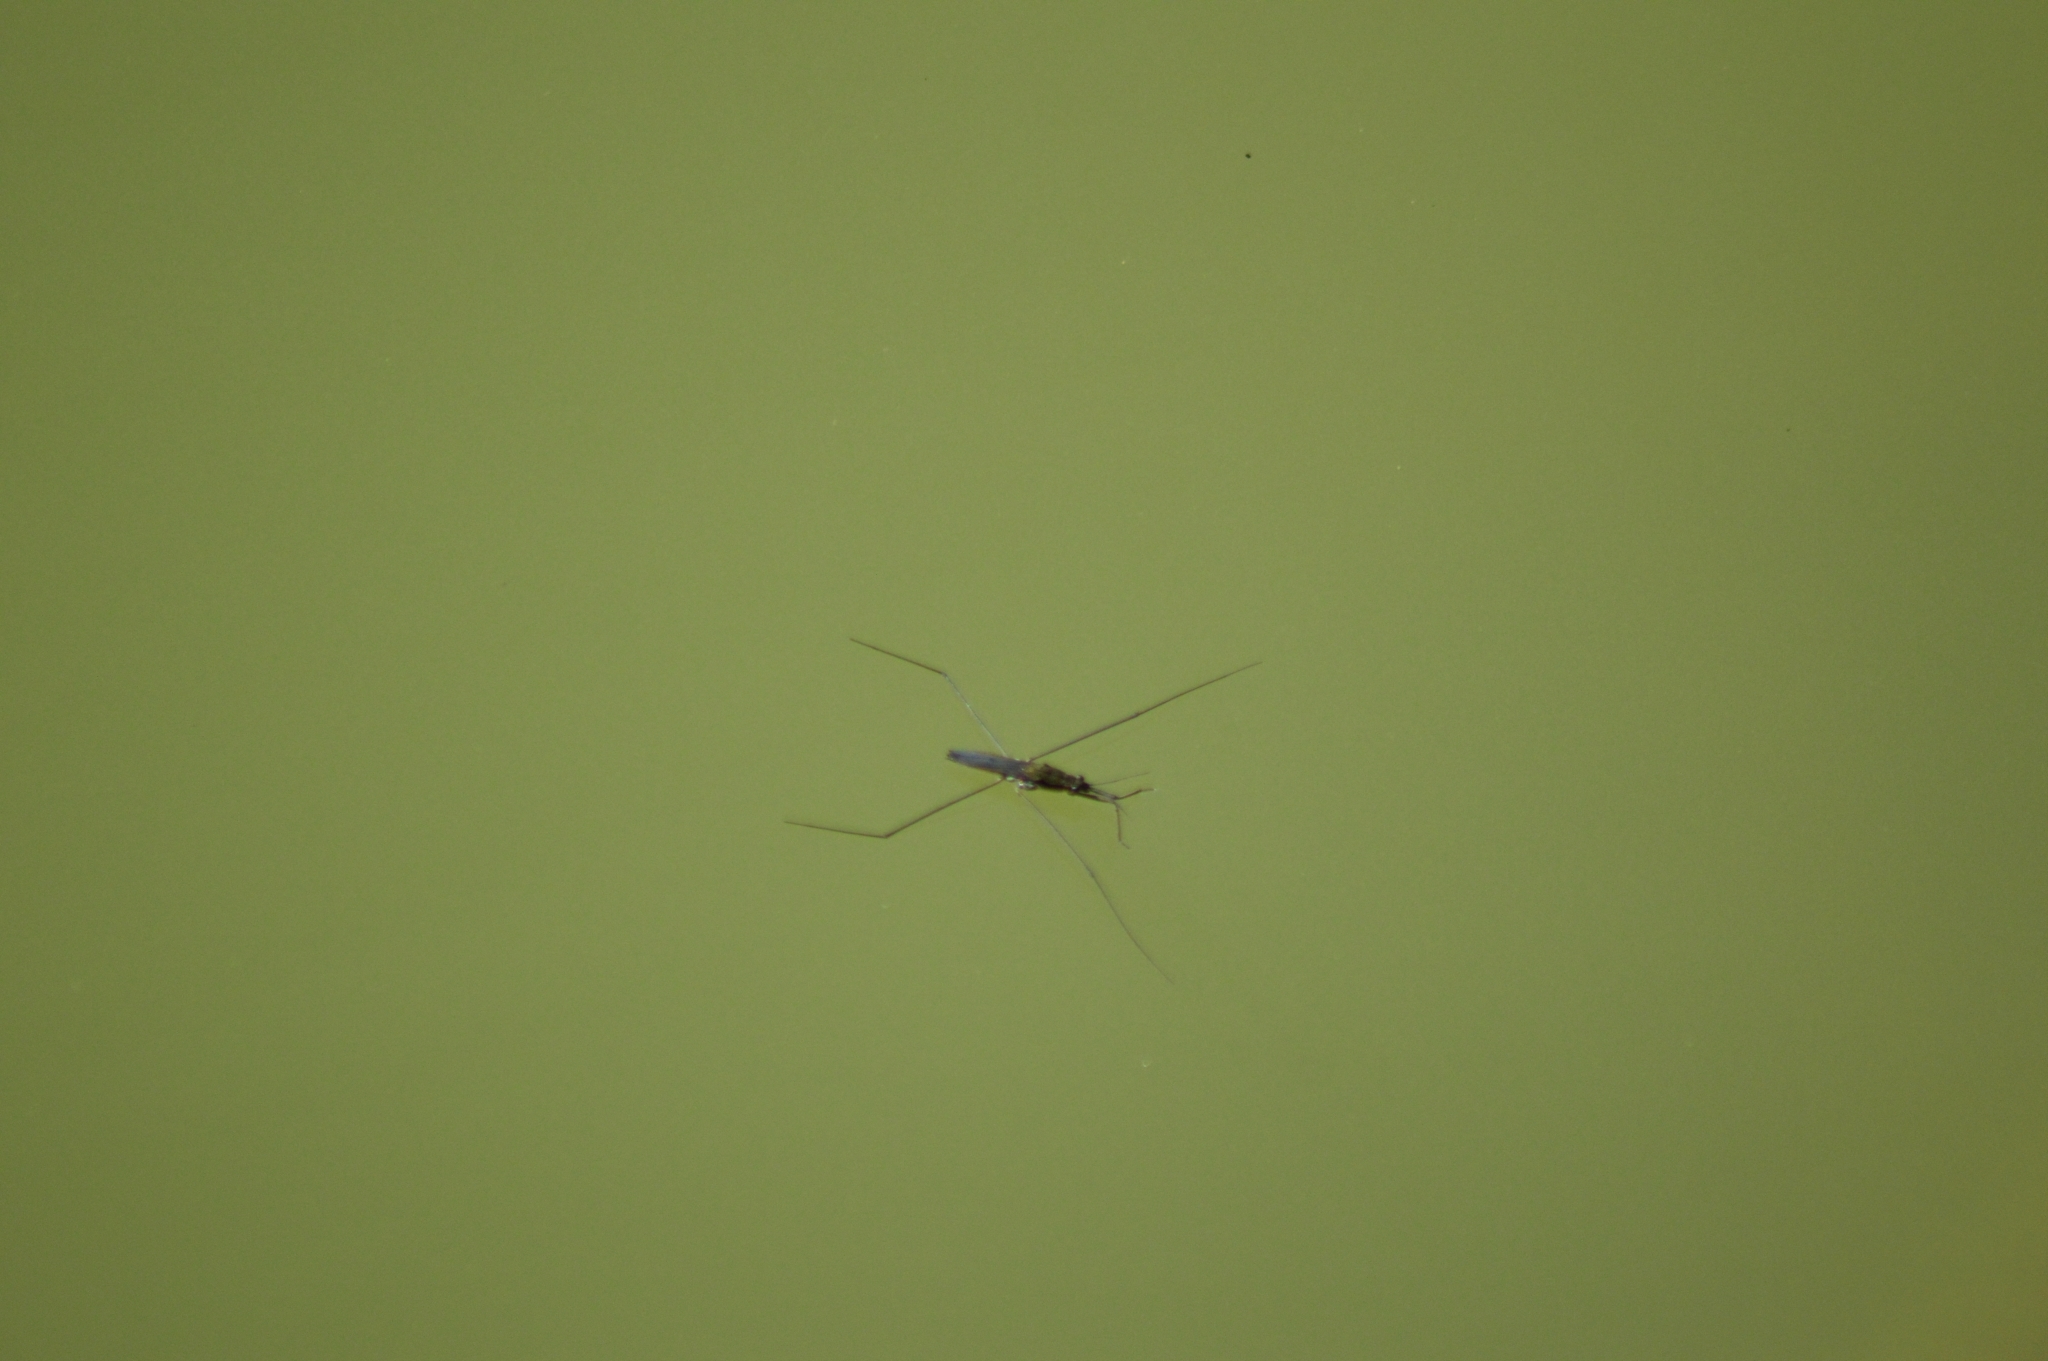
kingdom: Animalia
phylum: Arthropoda
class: Insecta
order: Hemiptera
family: Gerridae
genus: Aquarius
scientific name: Aquarius paludum
